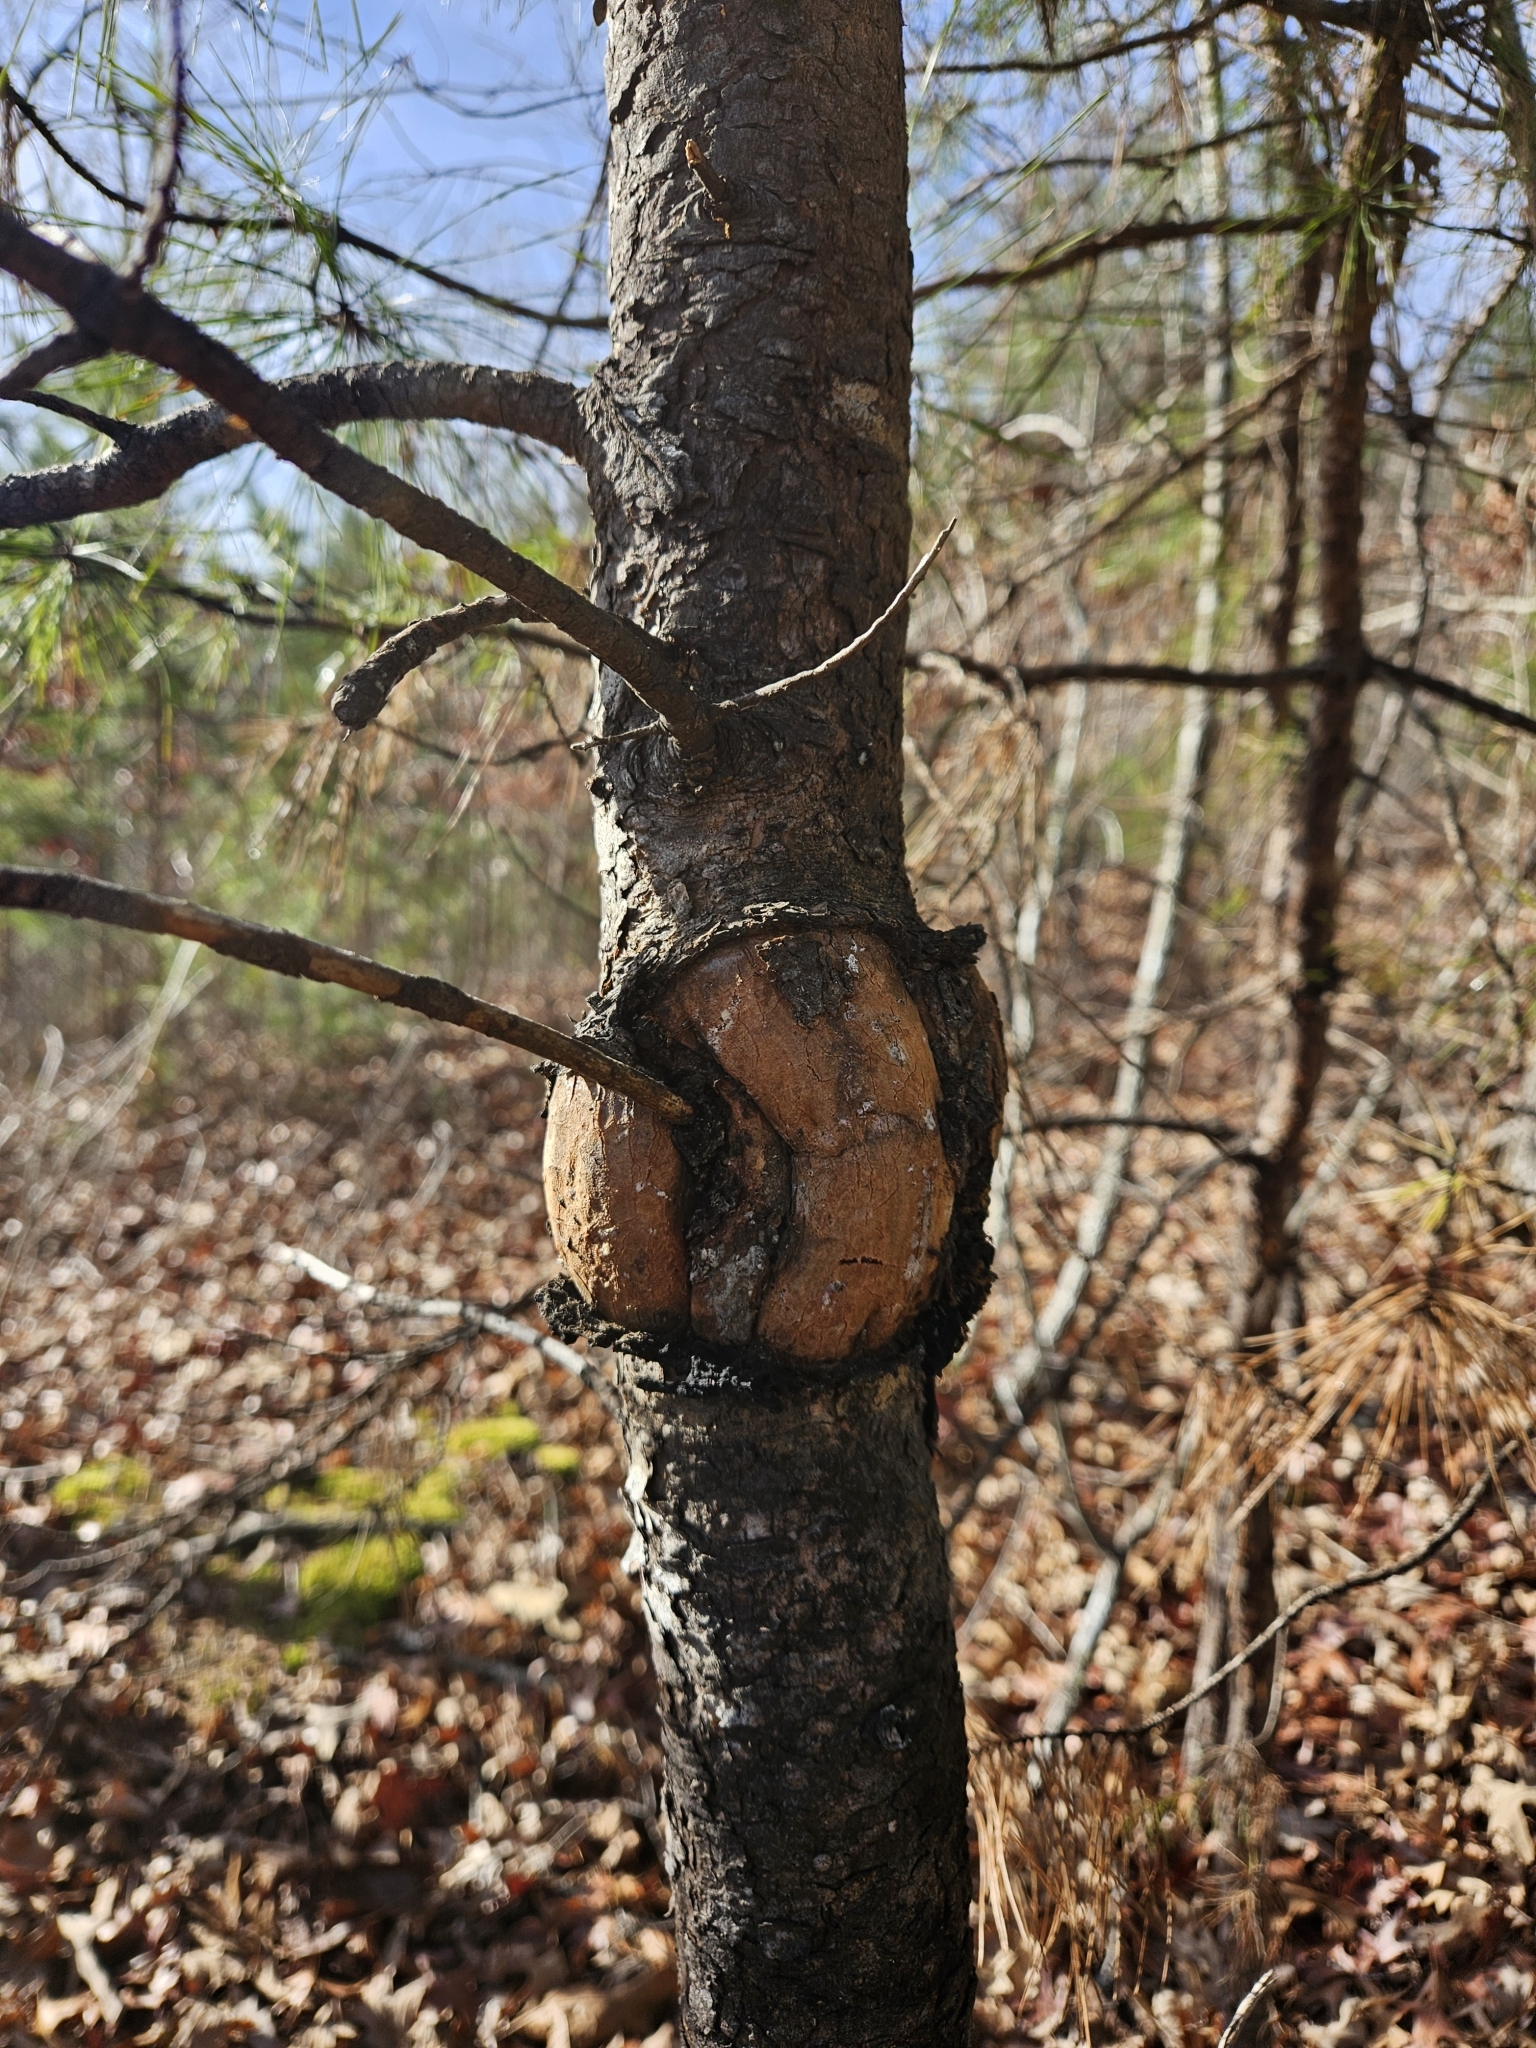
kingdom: Bacteria
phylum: Proteobacteria
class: Alphaproteobacteria
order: Rhizobiales
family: Rhizobiaceae
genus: Rhizobium
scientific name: Rhizobium Agrobacterium radiobacter
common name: Bacterial crown gall
